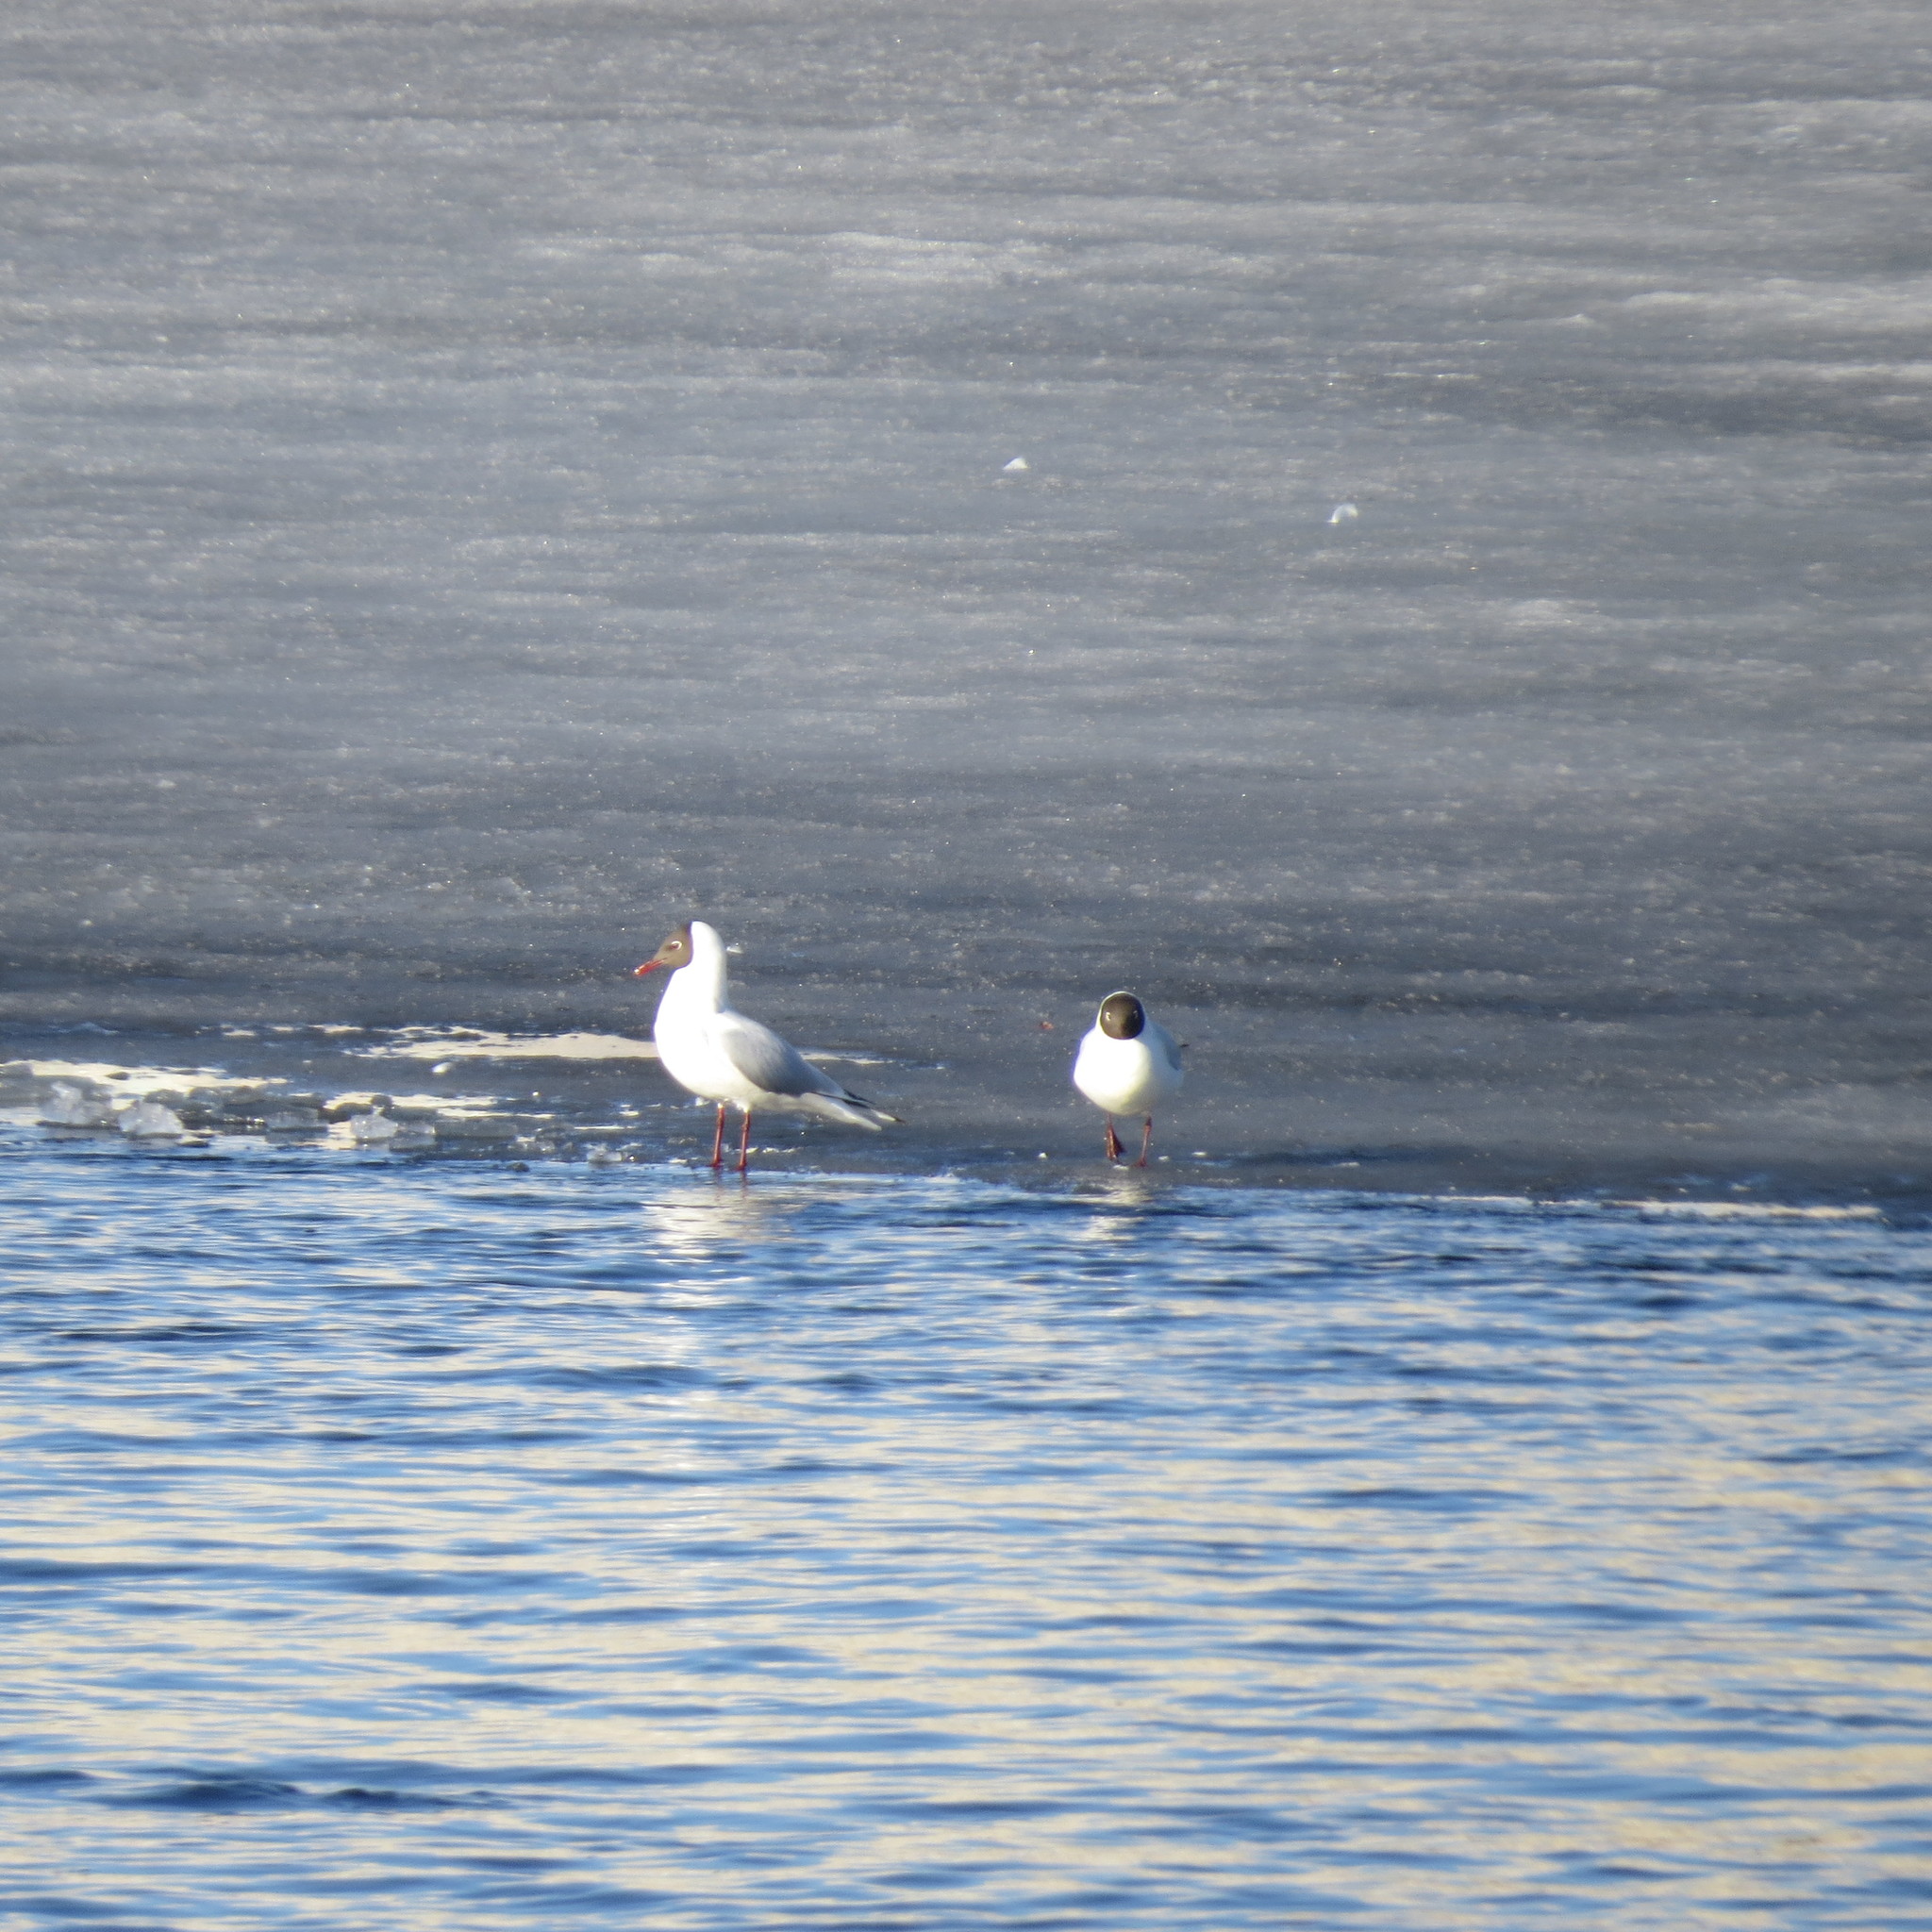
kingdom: Animalia
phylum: Chordata
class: Aves
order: Charadriiformes
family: Laridae
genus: Chroicocephalus
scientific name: Chroicocephalus ridibundus
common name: Black-headed gull
